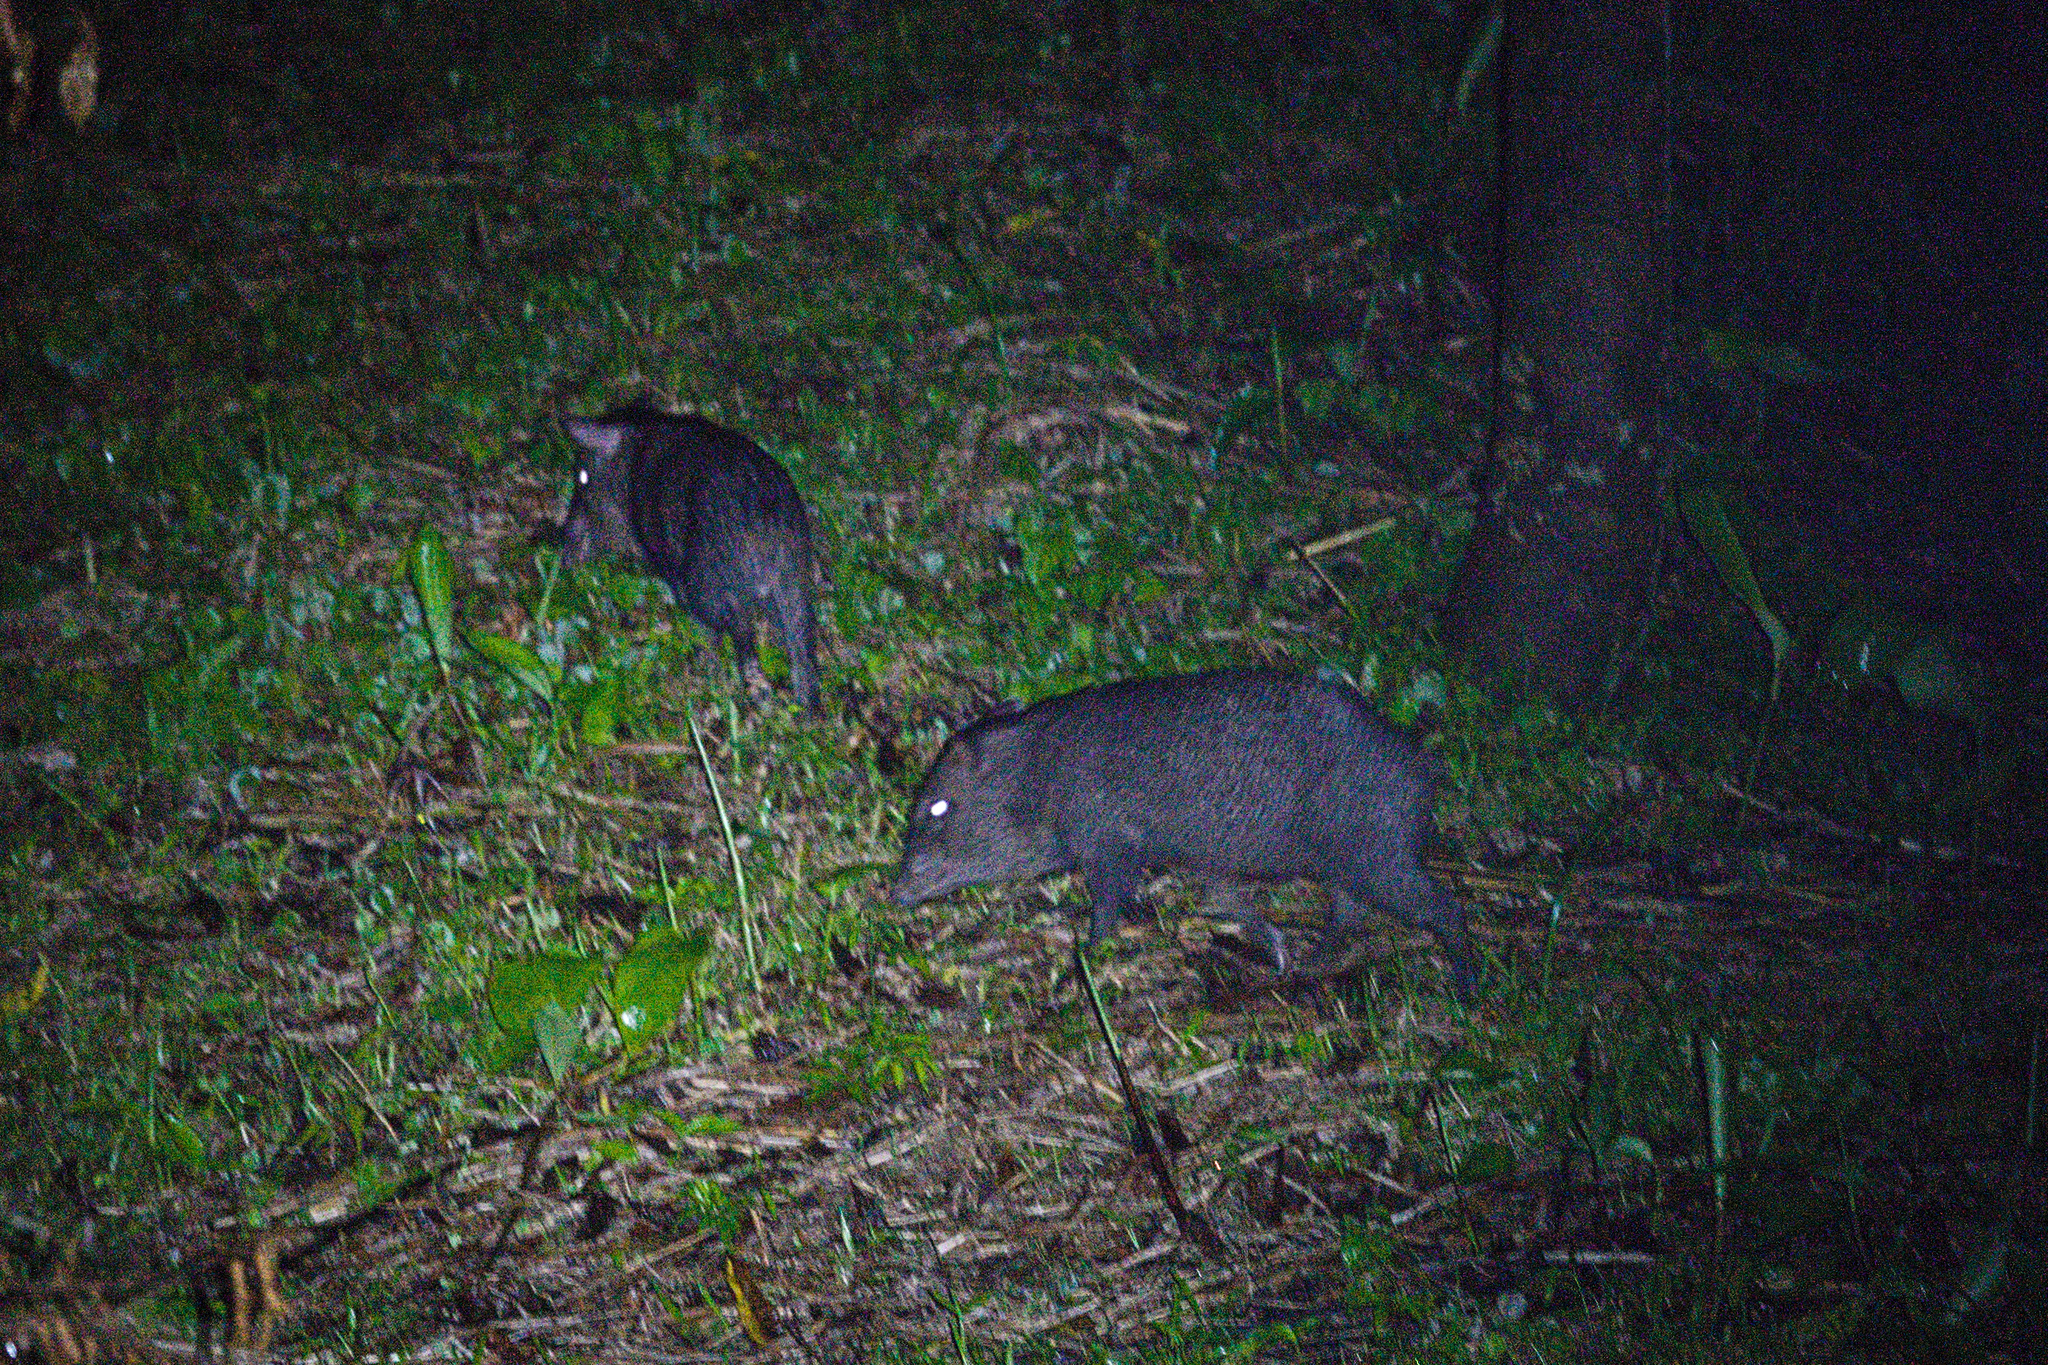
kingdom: Animalia
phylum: Chordata
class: Mammalia
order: Artiodactyla
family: Tayassuidae
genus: Pecari
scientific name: Pecari tajacu
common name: Collared peccary
